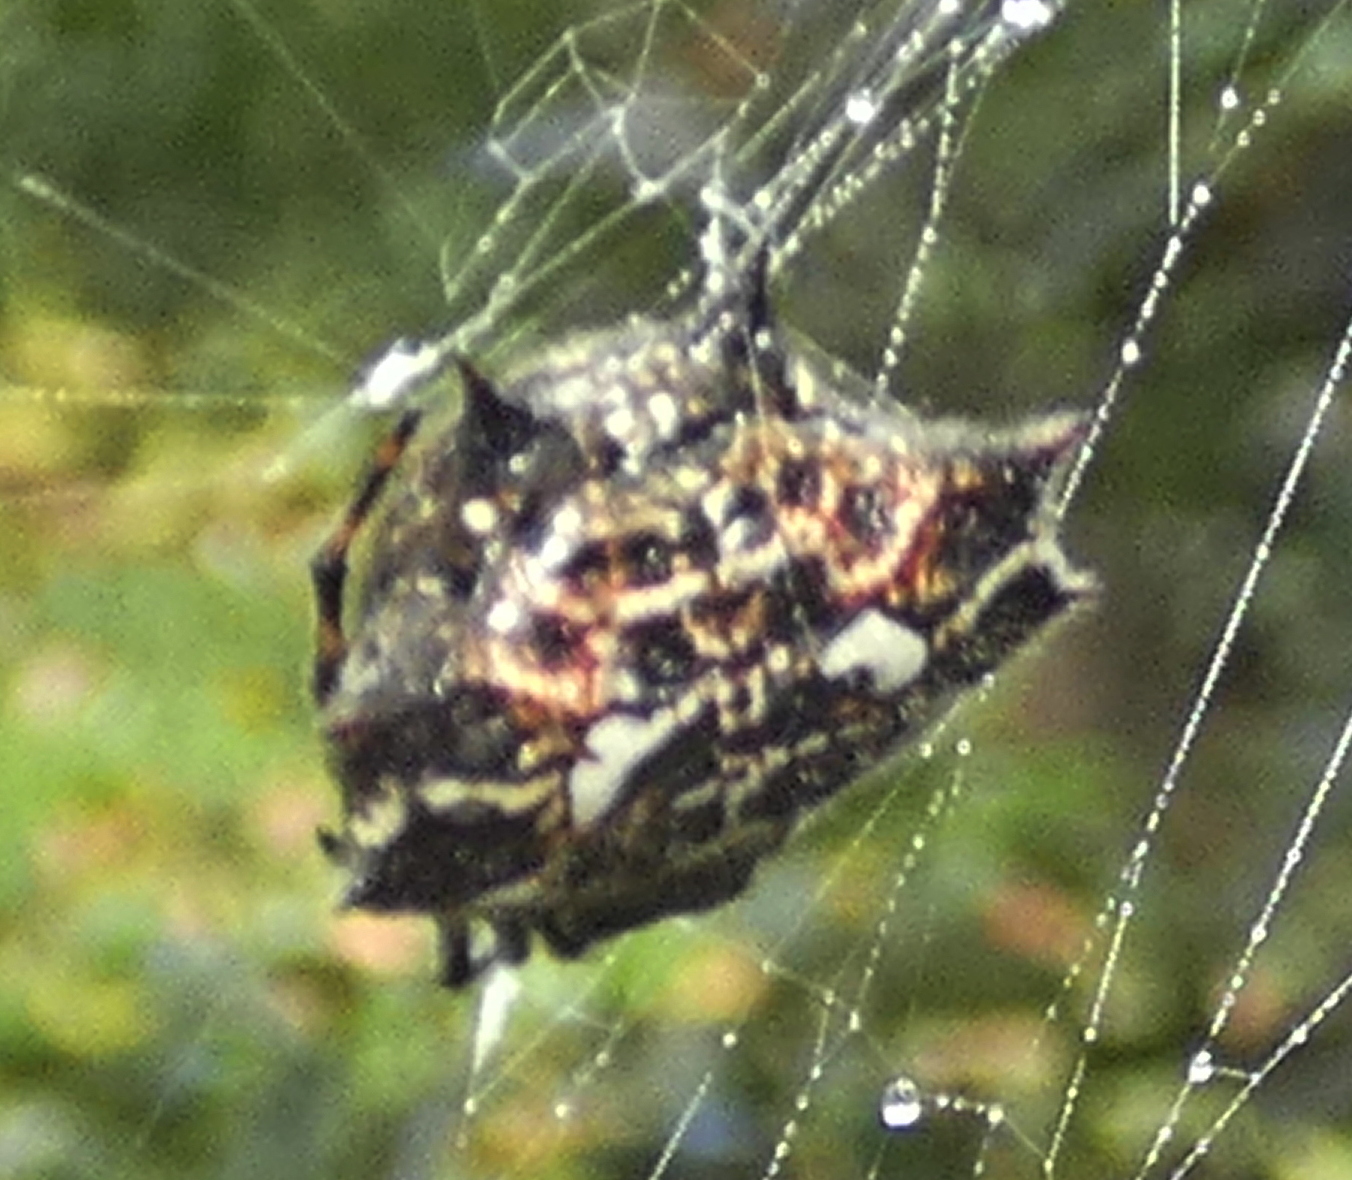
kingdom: Animalia
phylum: Arthropoda
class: Arachnida
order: Araneae
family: Araneidae
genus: Gasteracantha
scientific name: Gasteracantha cancriformis
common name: Orb weavers
